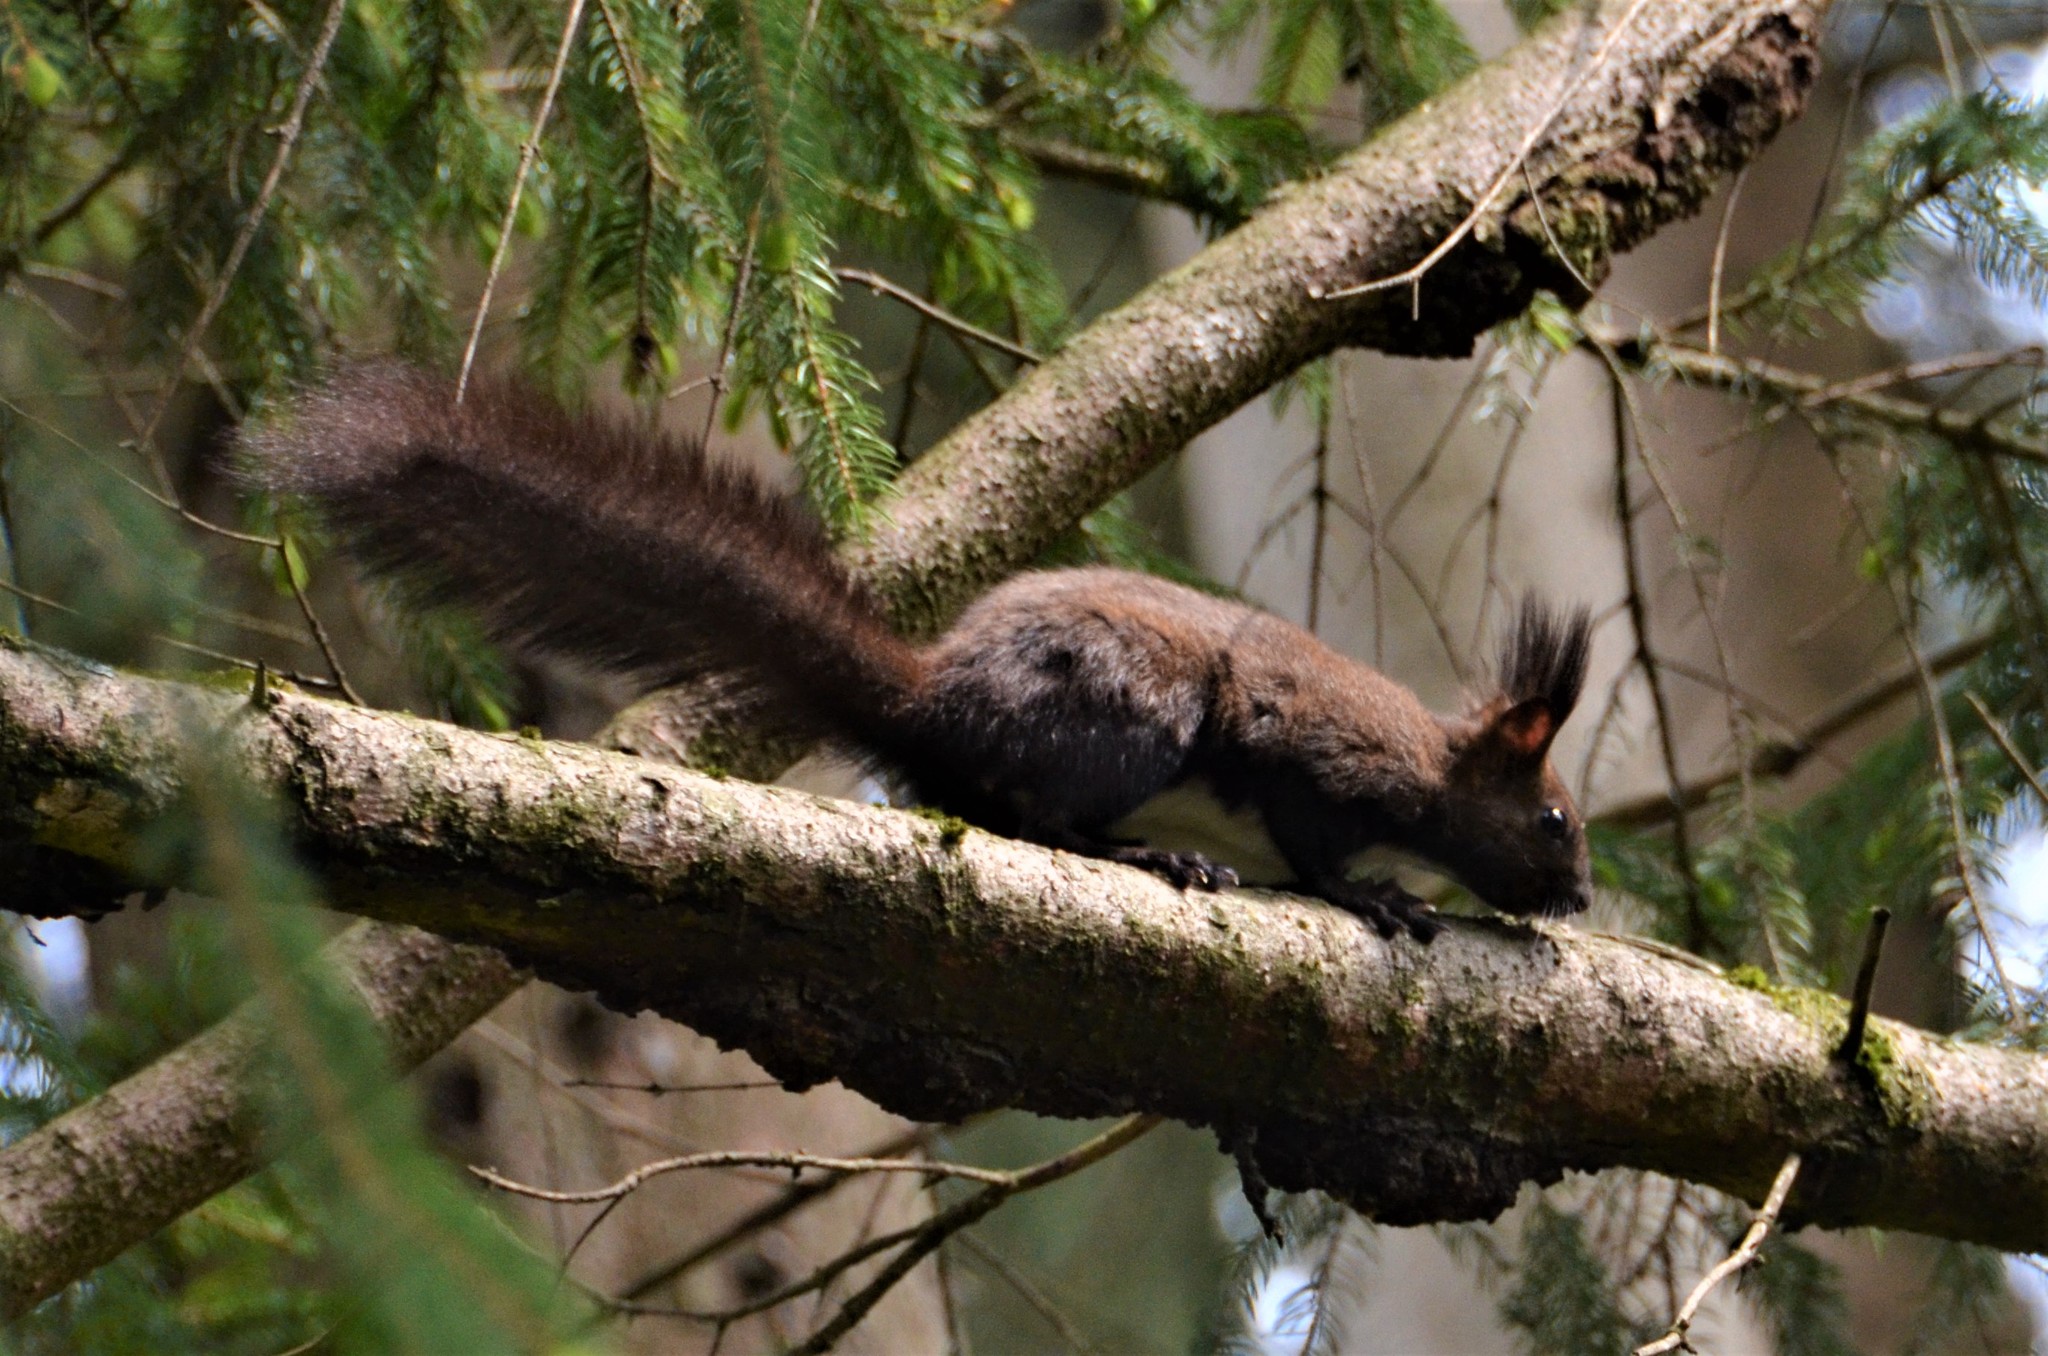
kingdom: Animalia
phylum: Chordata
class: Mammalia
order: Rodentia
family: Sciuridae
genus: Sciurus
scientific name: Sciurus vulgaris
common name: Eurasian red squirrel
